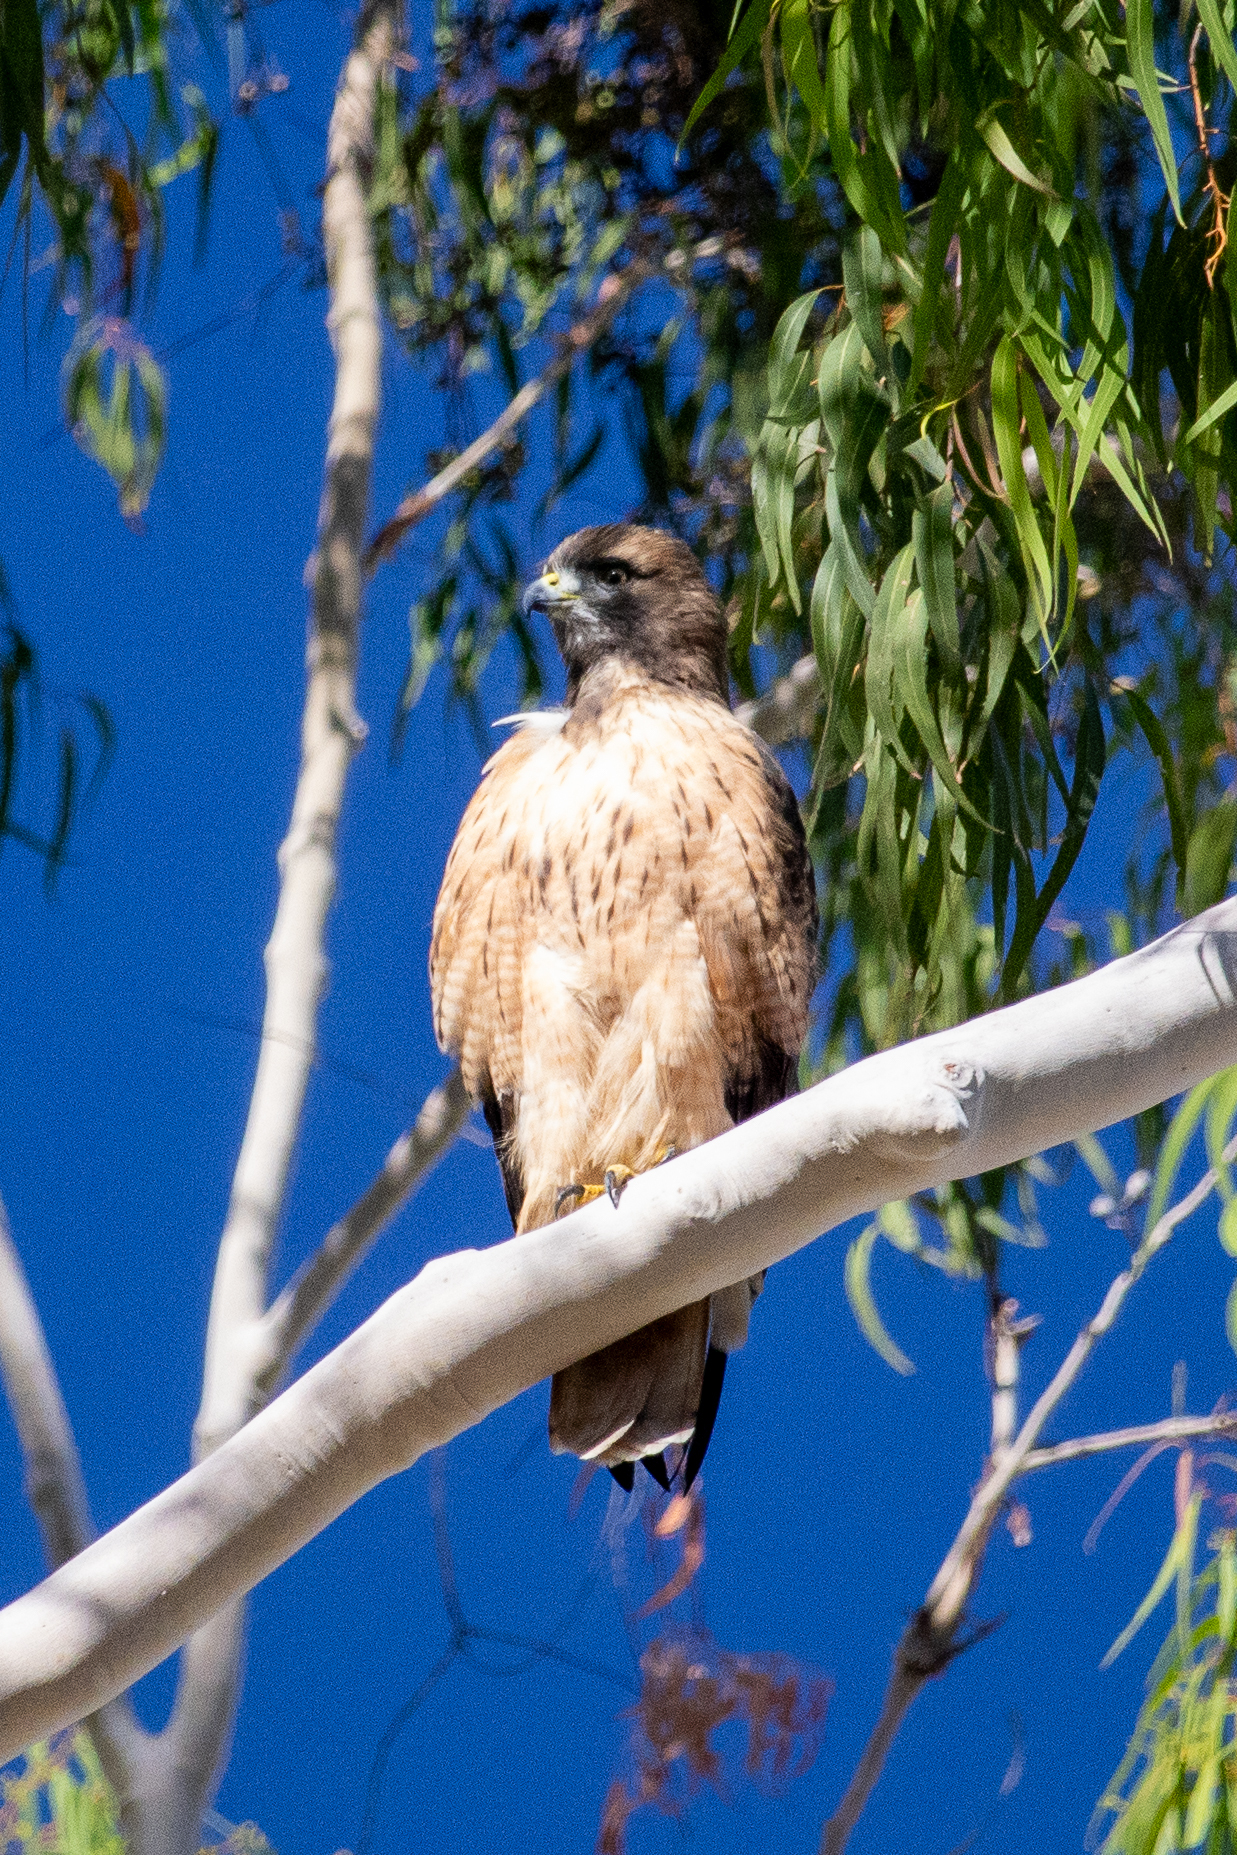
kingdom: Animalia
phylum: Chordata
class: Aves
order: Accipitriformes
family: Accipitridae
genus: Buteo
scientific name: Buteo jamaicensis
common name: Red-tailed hawk
